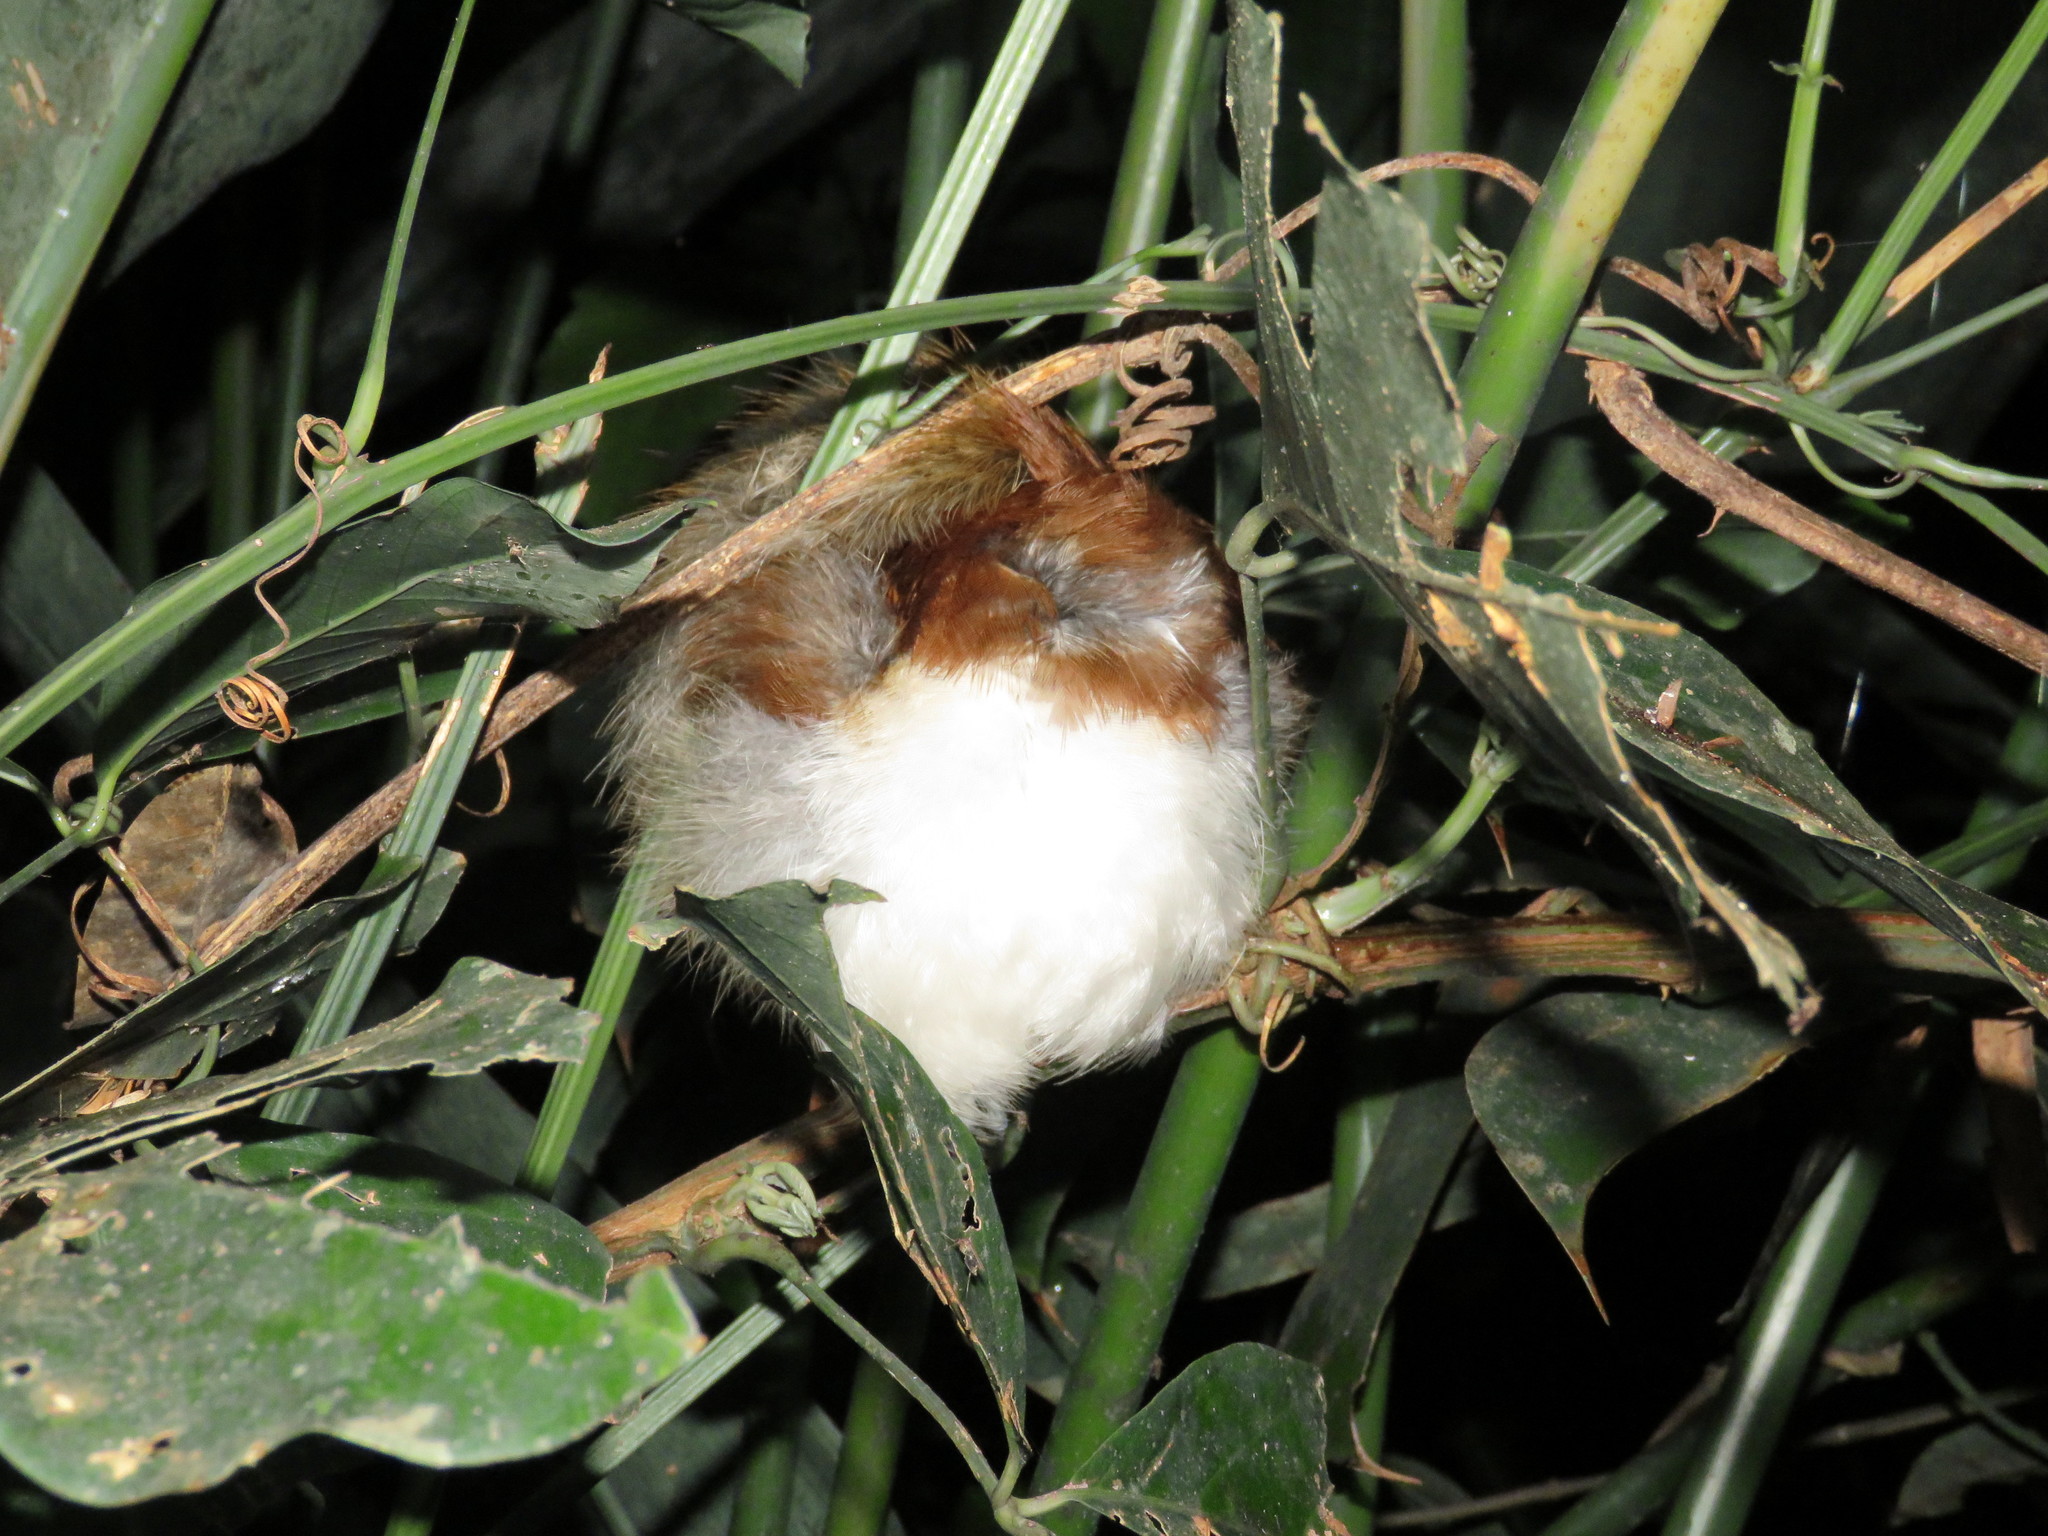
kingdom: Animalia
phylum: Chordata
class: Aves
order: Passeriformes
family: Thamnophilidae
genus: Taraba
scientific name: Taraba major
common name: Great antshrike
